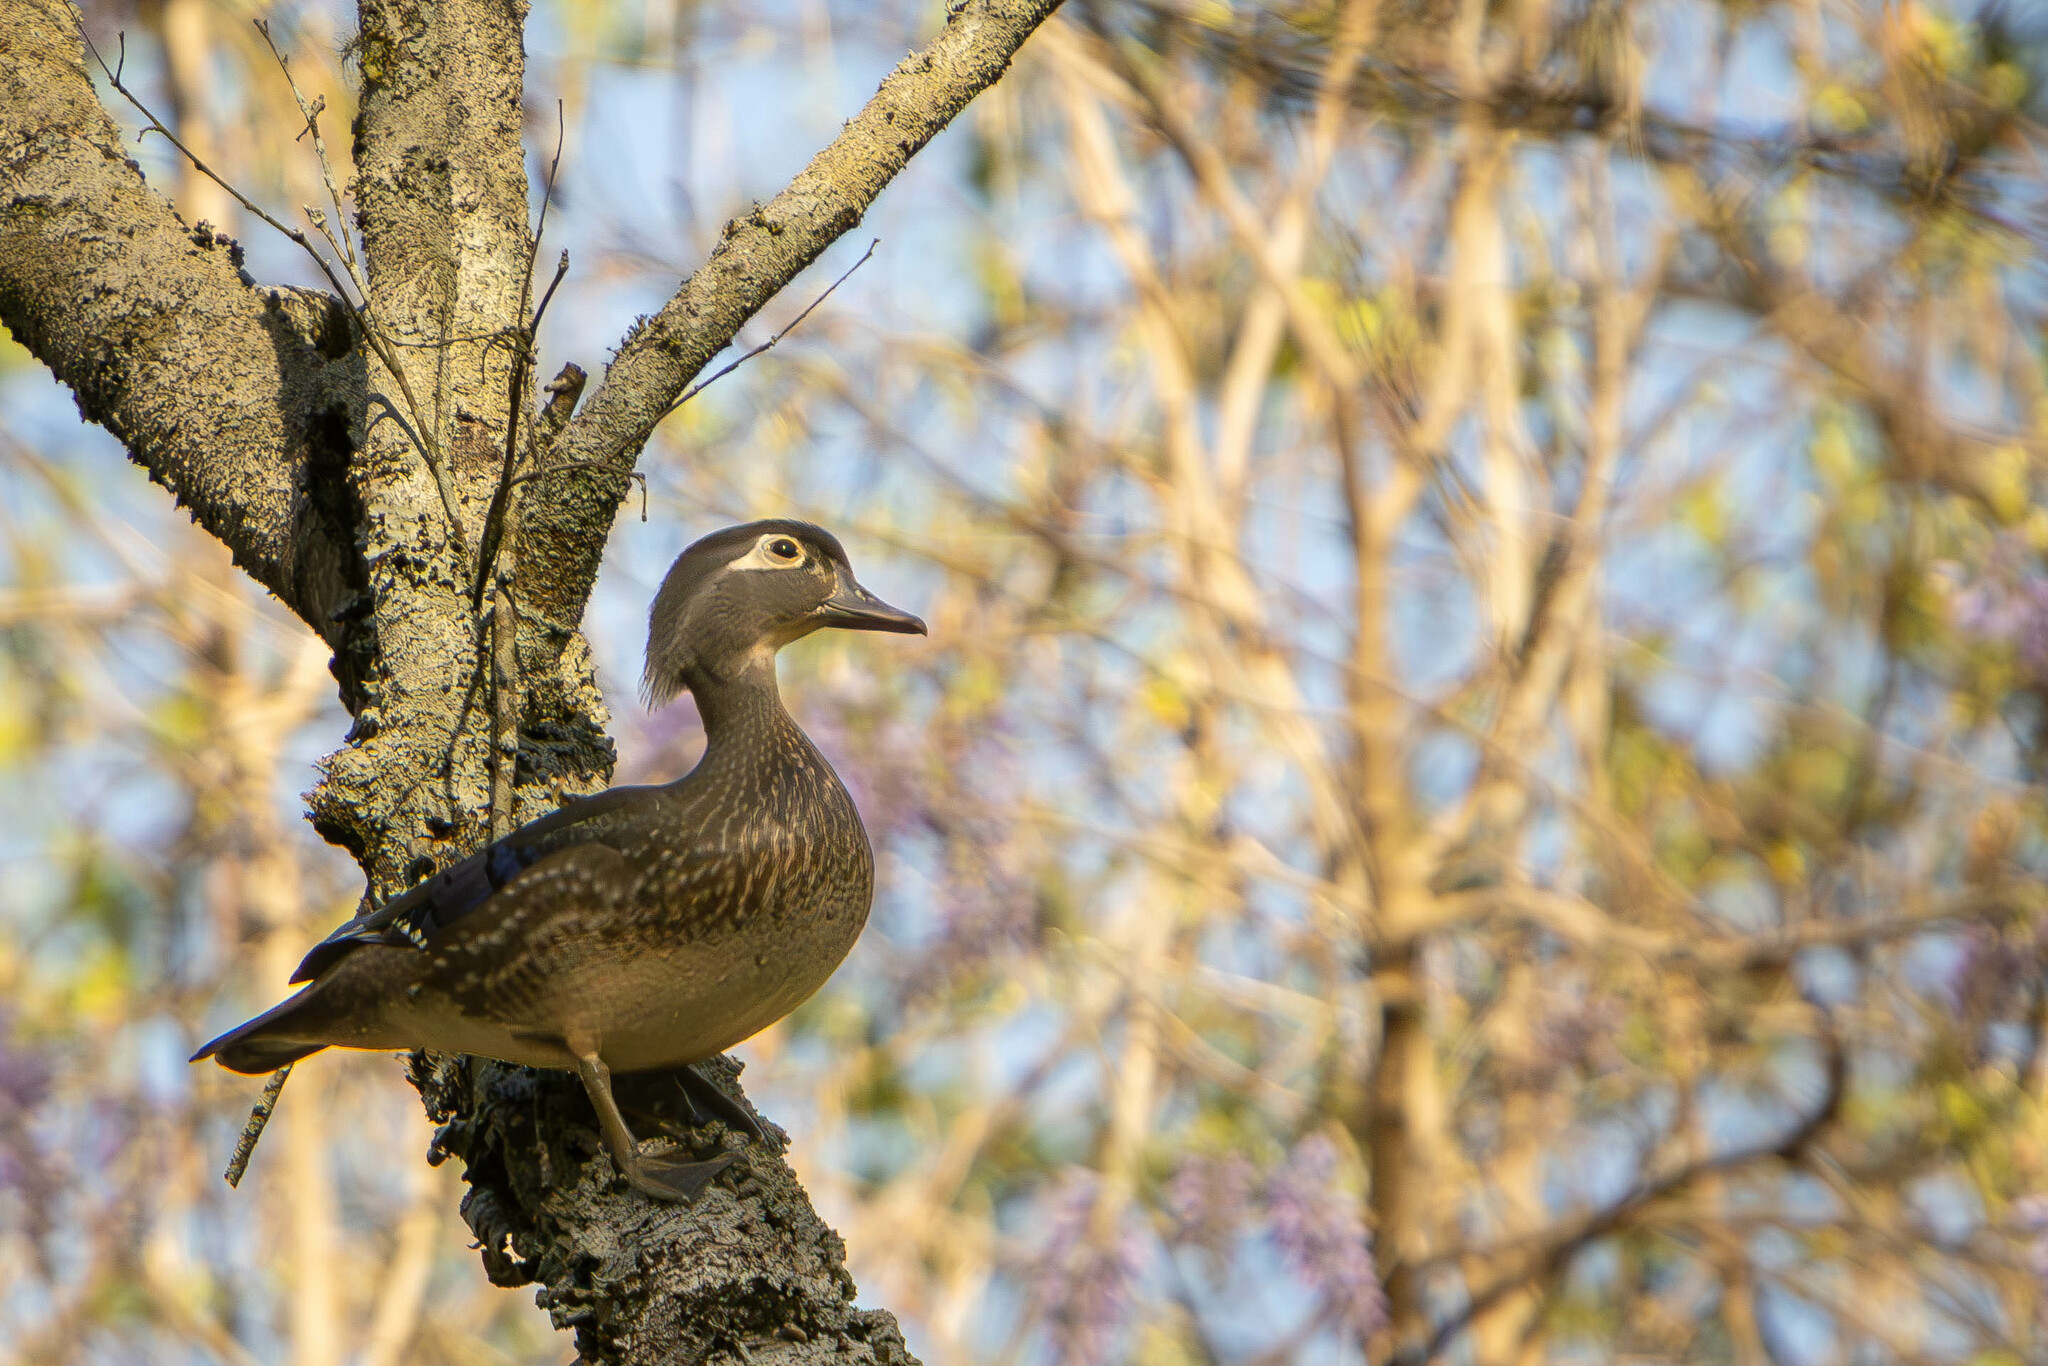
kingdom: Animalia
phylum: Chordata
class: Aves
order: Anseriformes
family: Anatidae
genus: Aix
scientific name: Aix sponsa
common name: Wood duck
